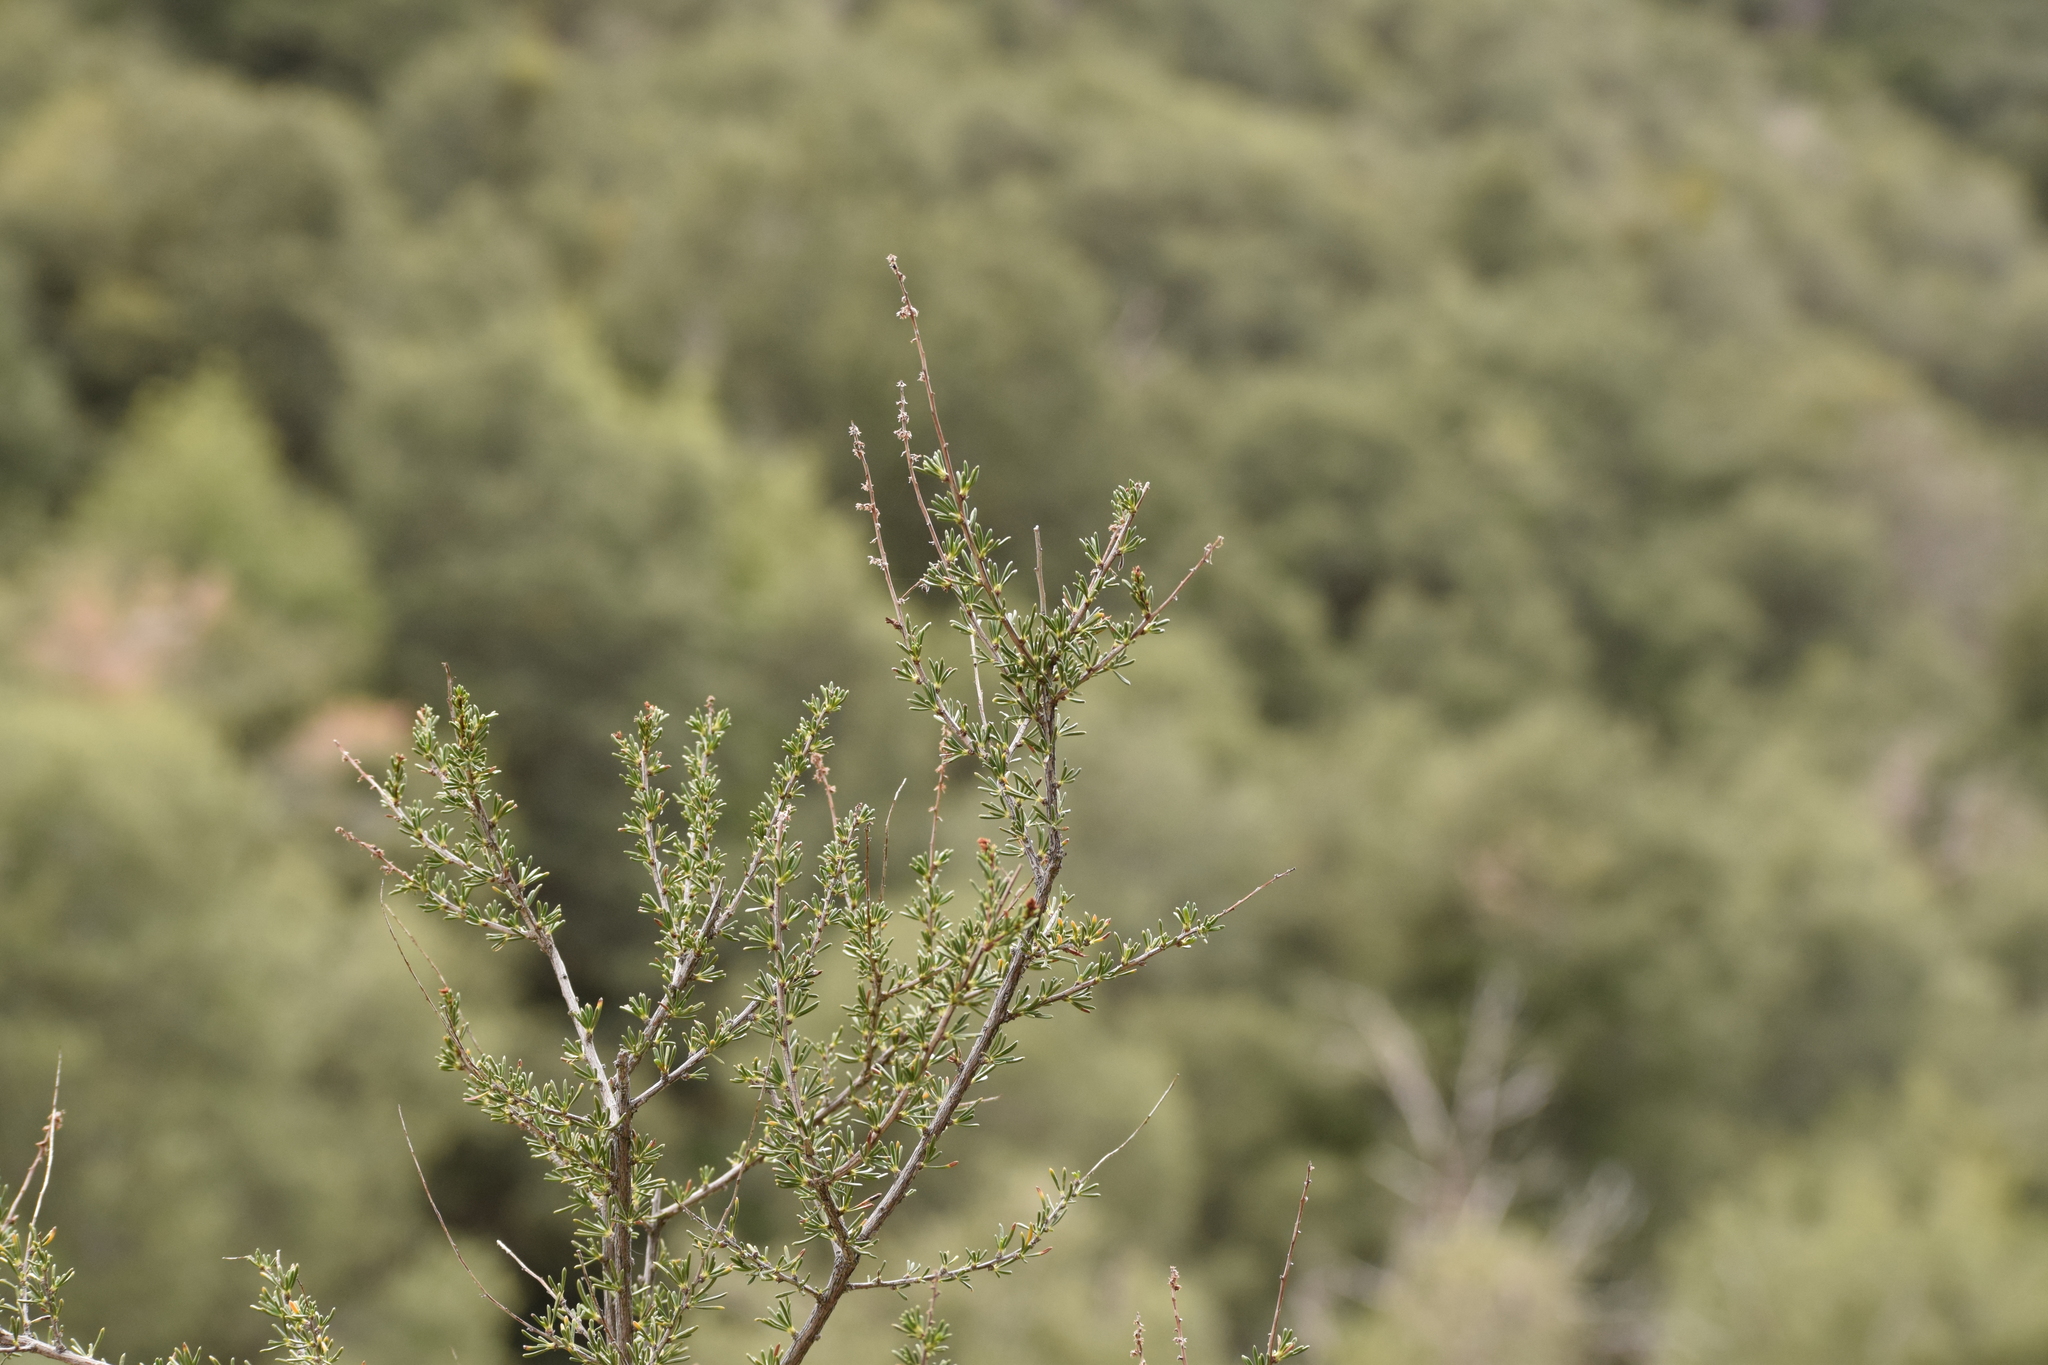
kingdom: Plantae
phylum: Tracheophyta
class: Magnoliopsida
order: Rosales
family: Rosaceae
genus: Adenostoma
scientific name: Adenostoma fasciculatum
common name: Chamise
